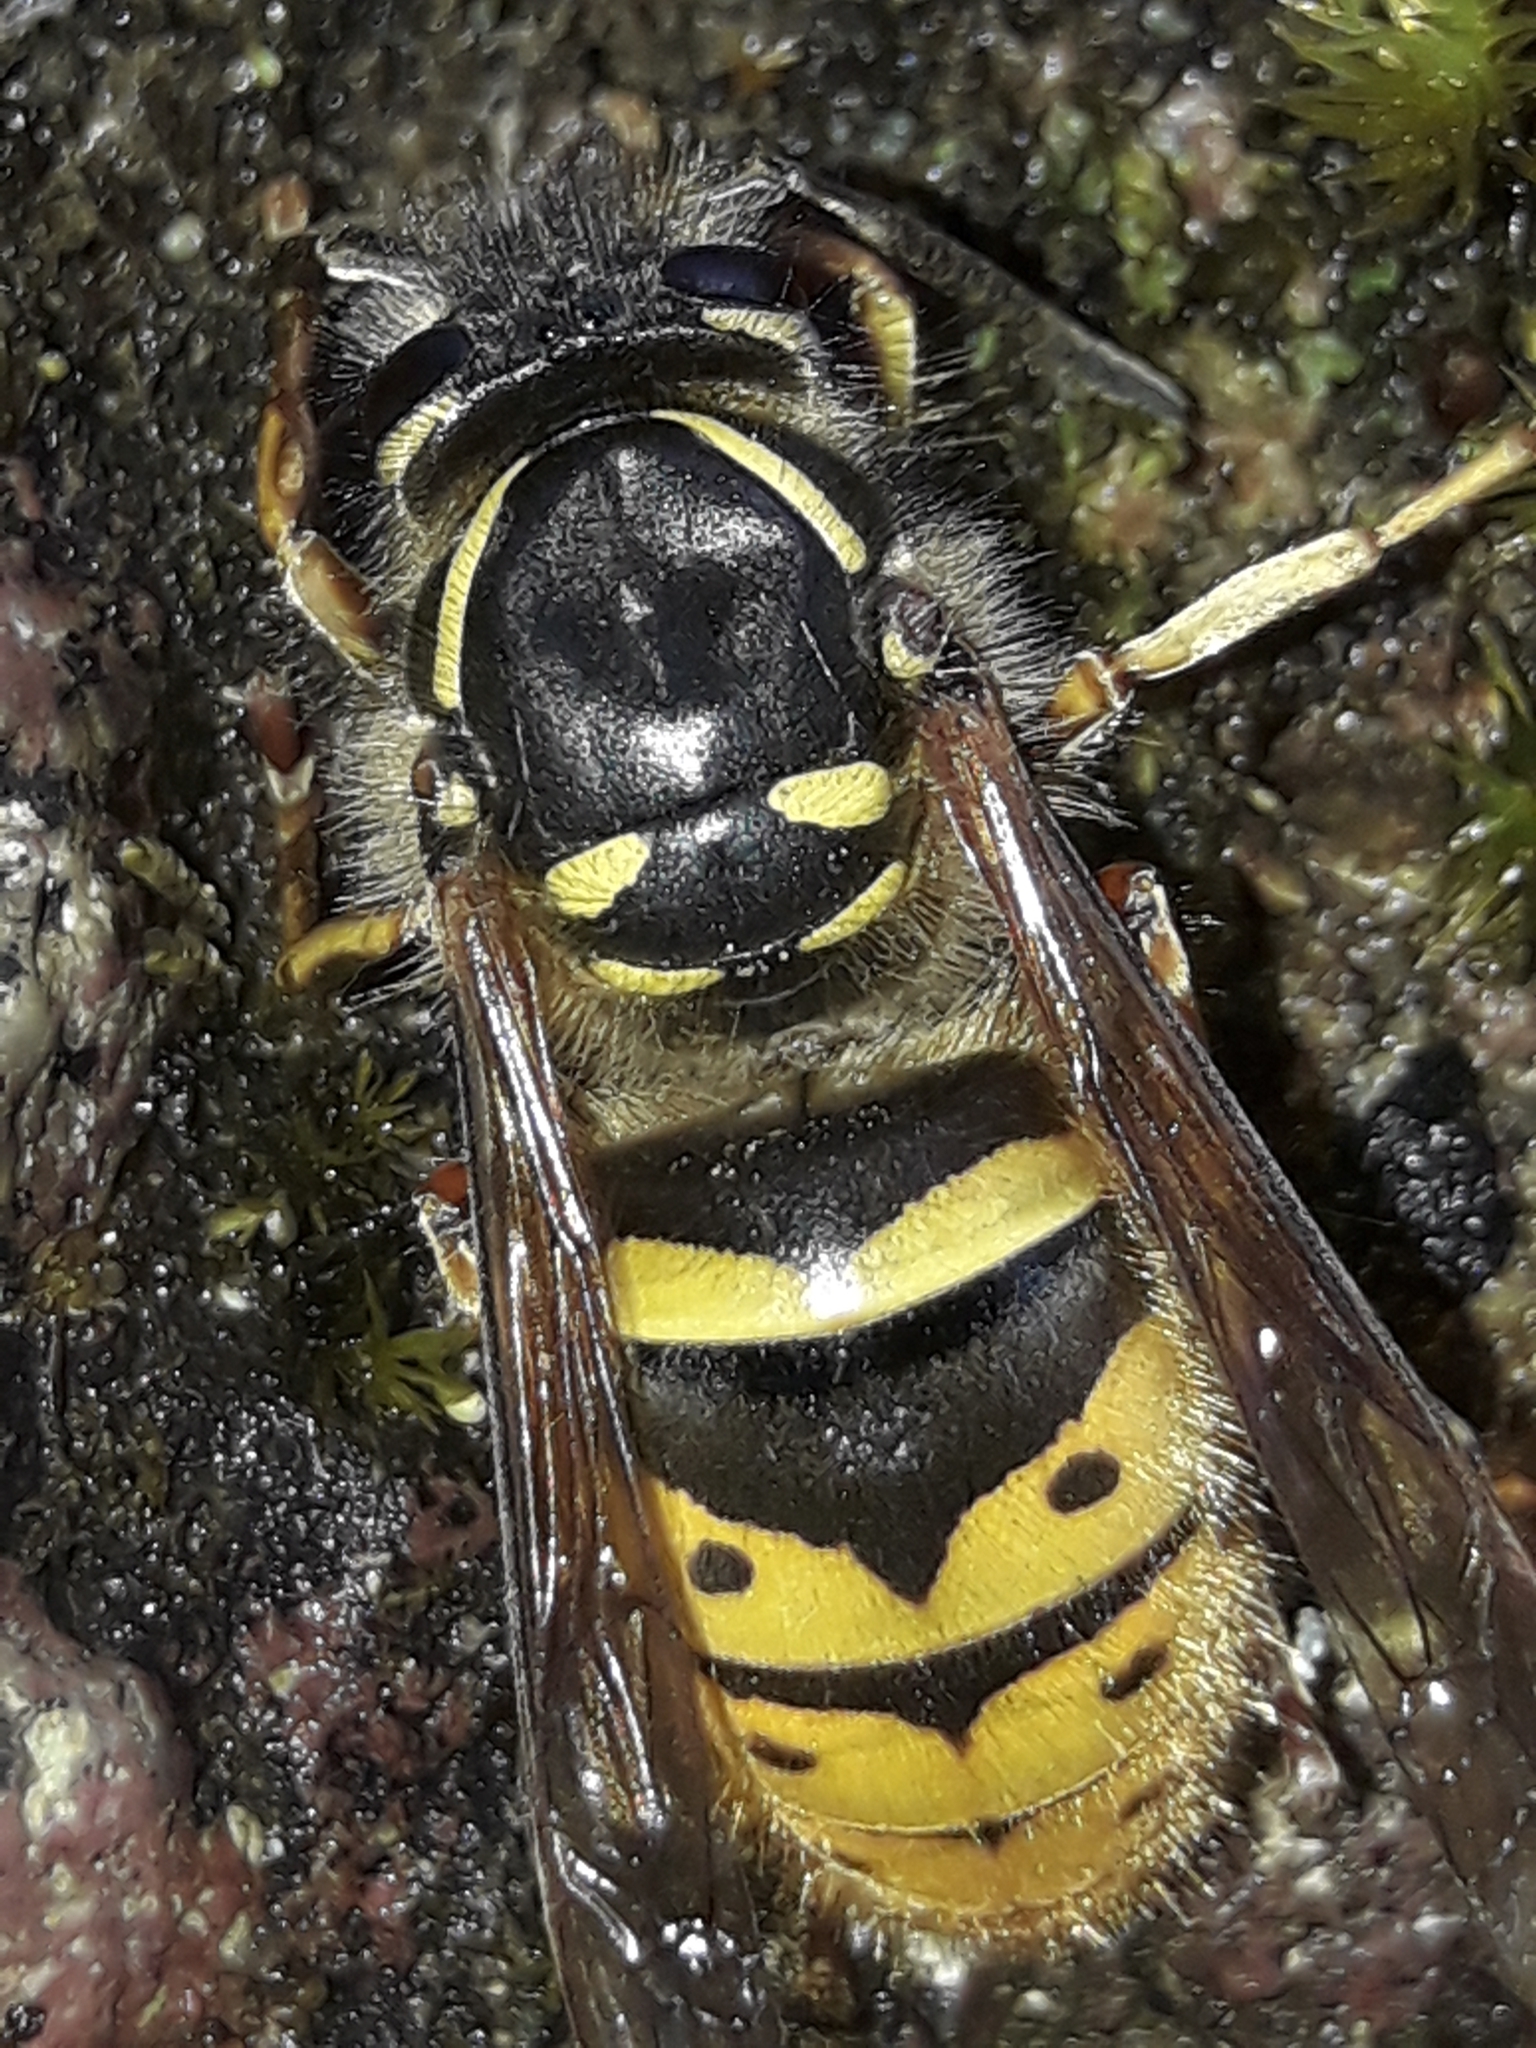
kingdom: Animalia
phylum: Arthropoda
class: Insecta
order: Hymenoptera
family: Vespidae
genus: Vespula
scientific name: Vespula vulgaris
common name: Common wasp
